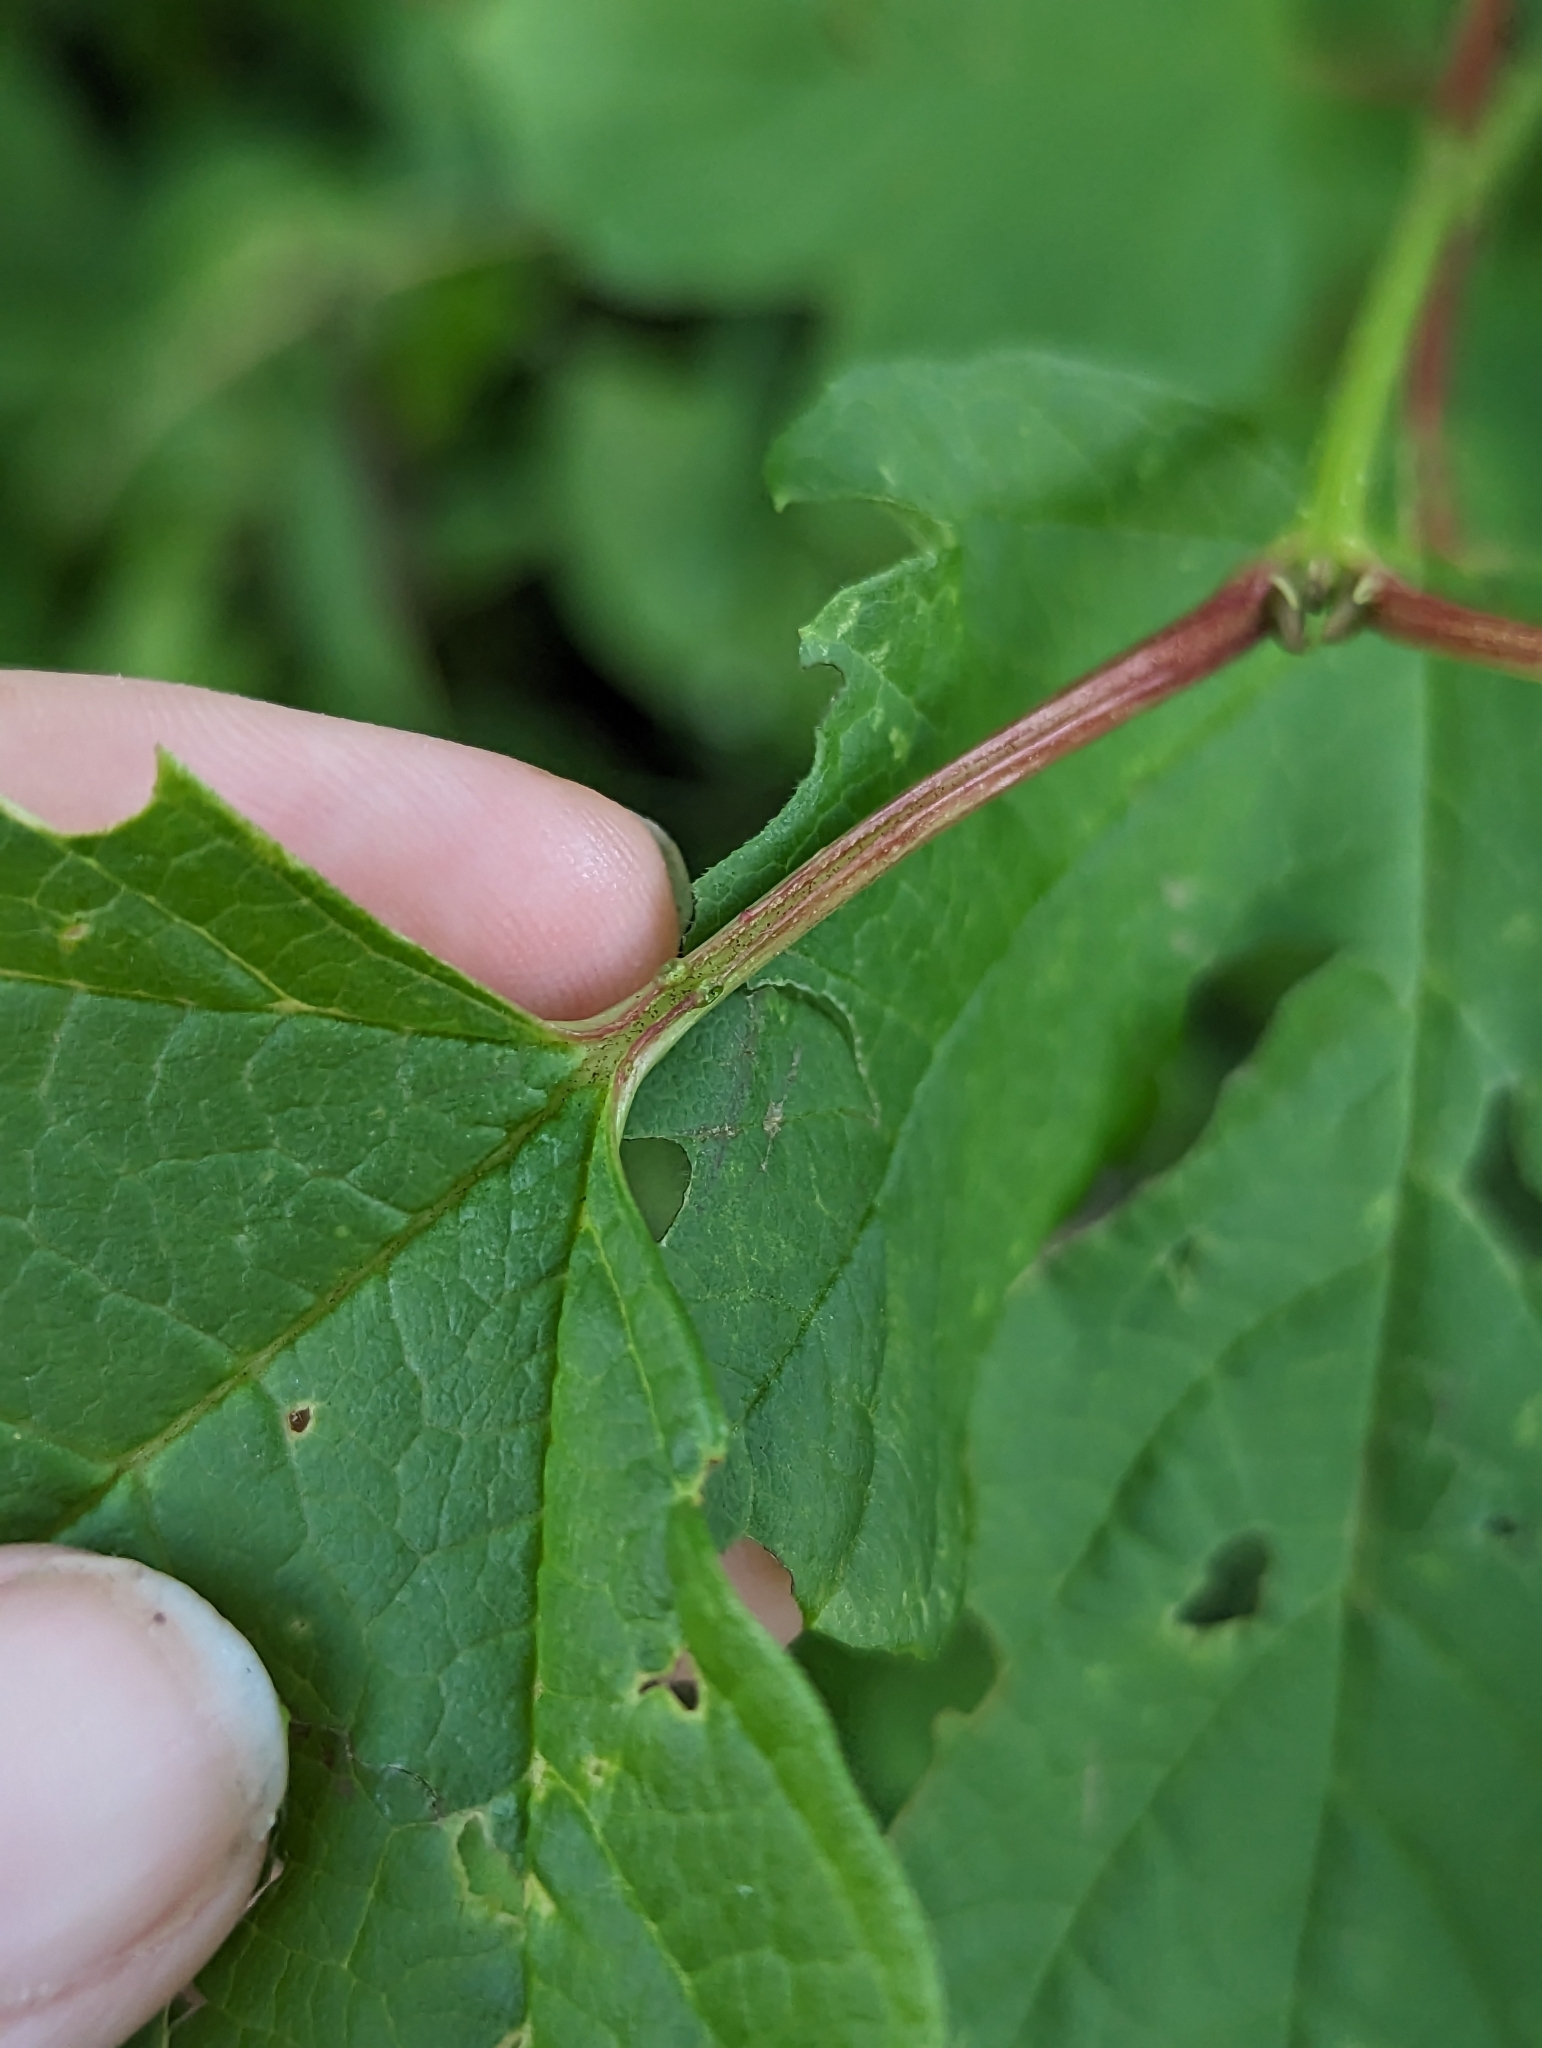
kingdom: Plantae
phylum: Tracheophyta
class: Magnoliopsida
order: Dipsacales
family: Viburnaceae
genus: Viburnum
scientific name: Viburnum opulus
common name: Guelder-rose
